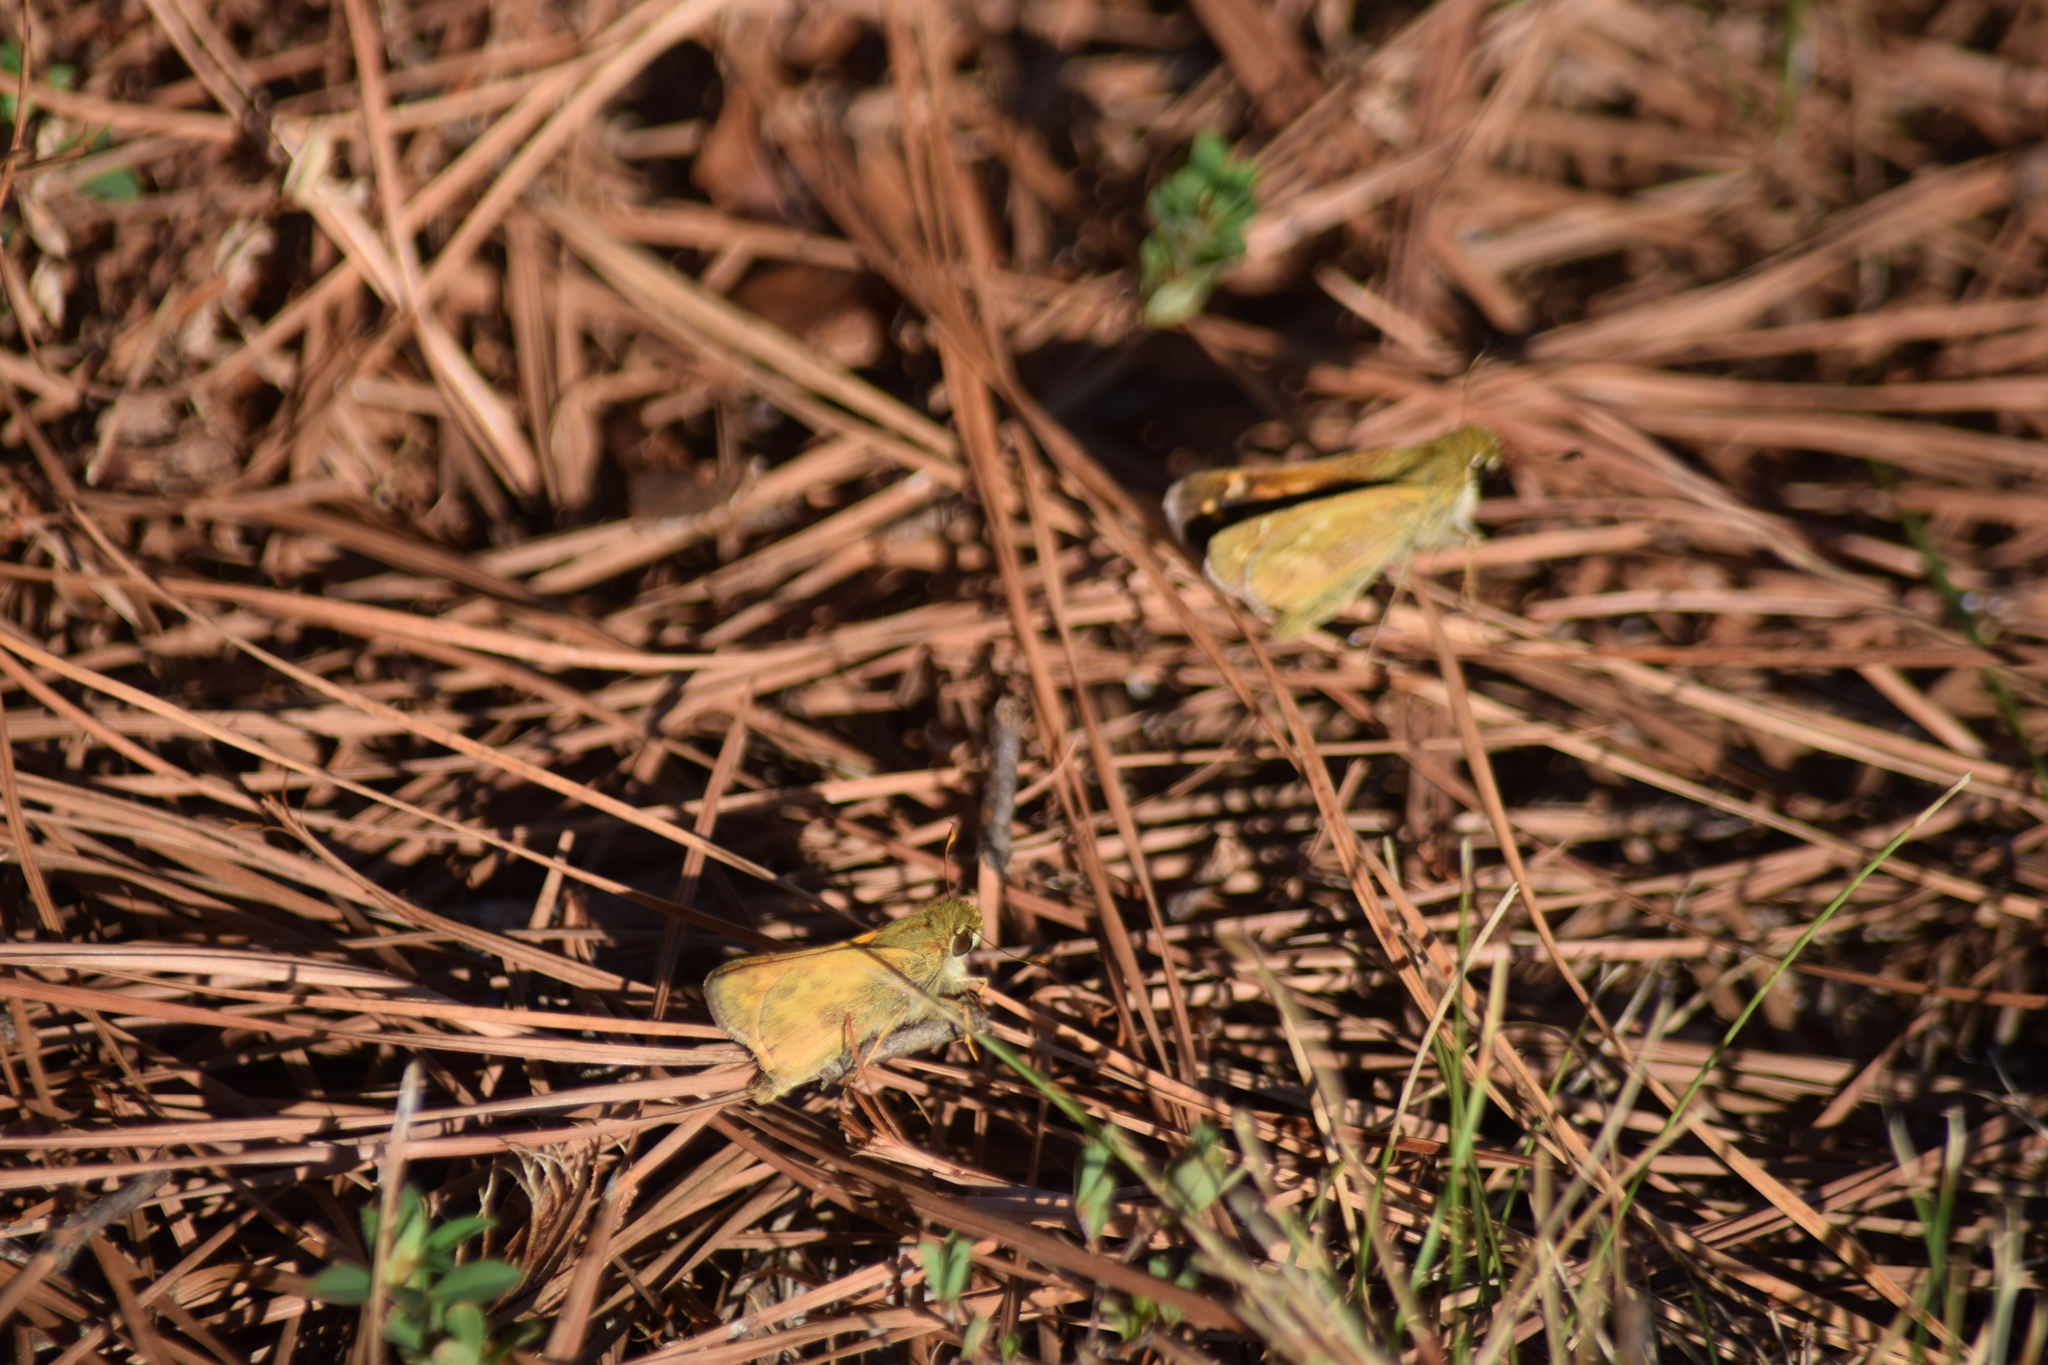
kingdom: Animalia
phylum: Arthropoda
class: Insecta
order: Lepidoptera
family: Hesperiidae
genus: Atalopedes
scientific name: Atalopedes
